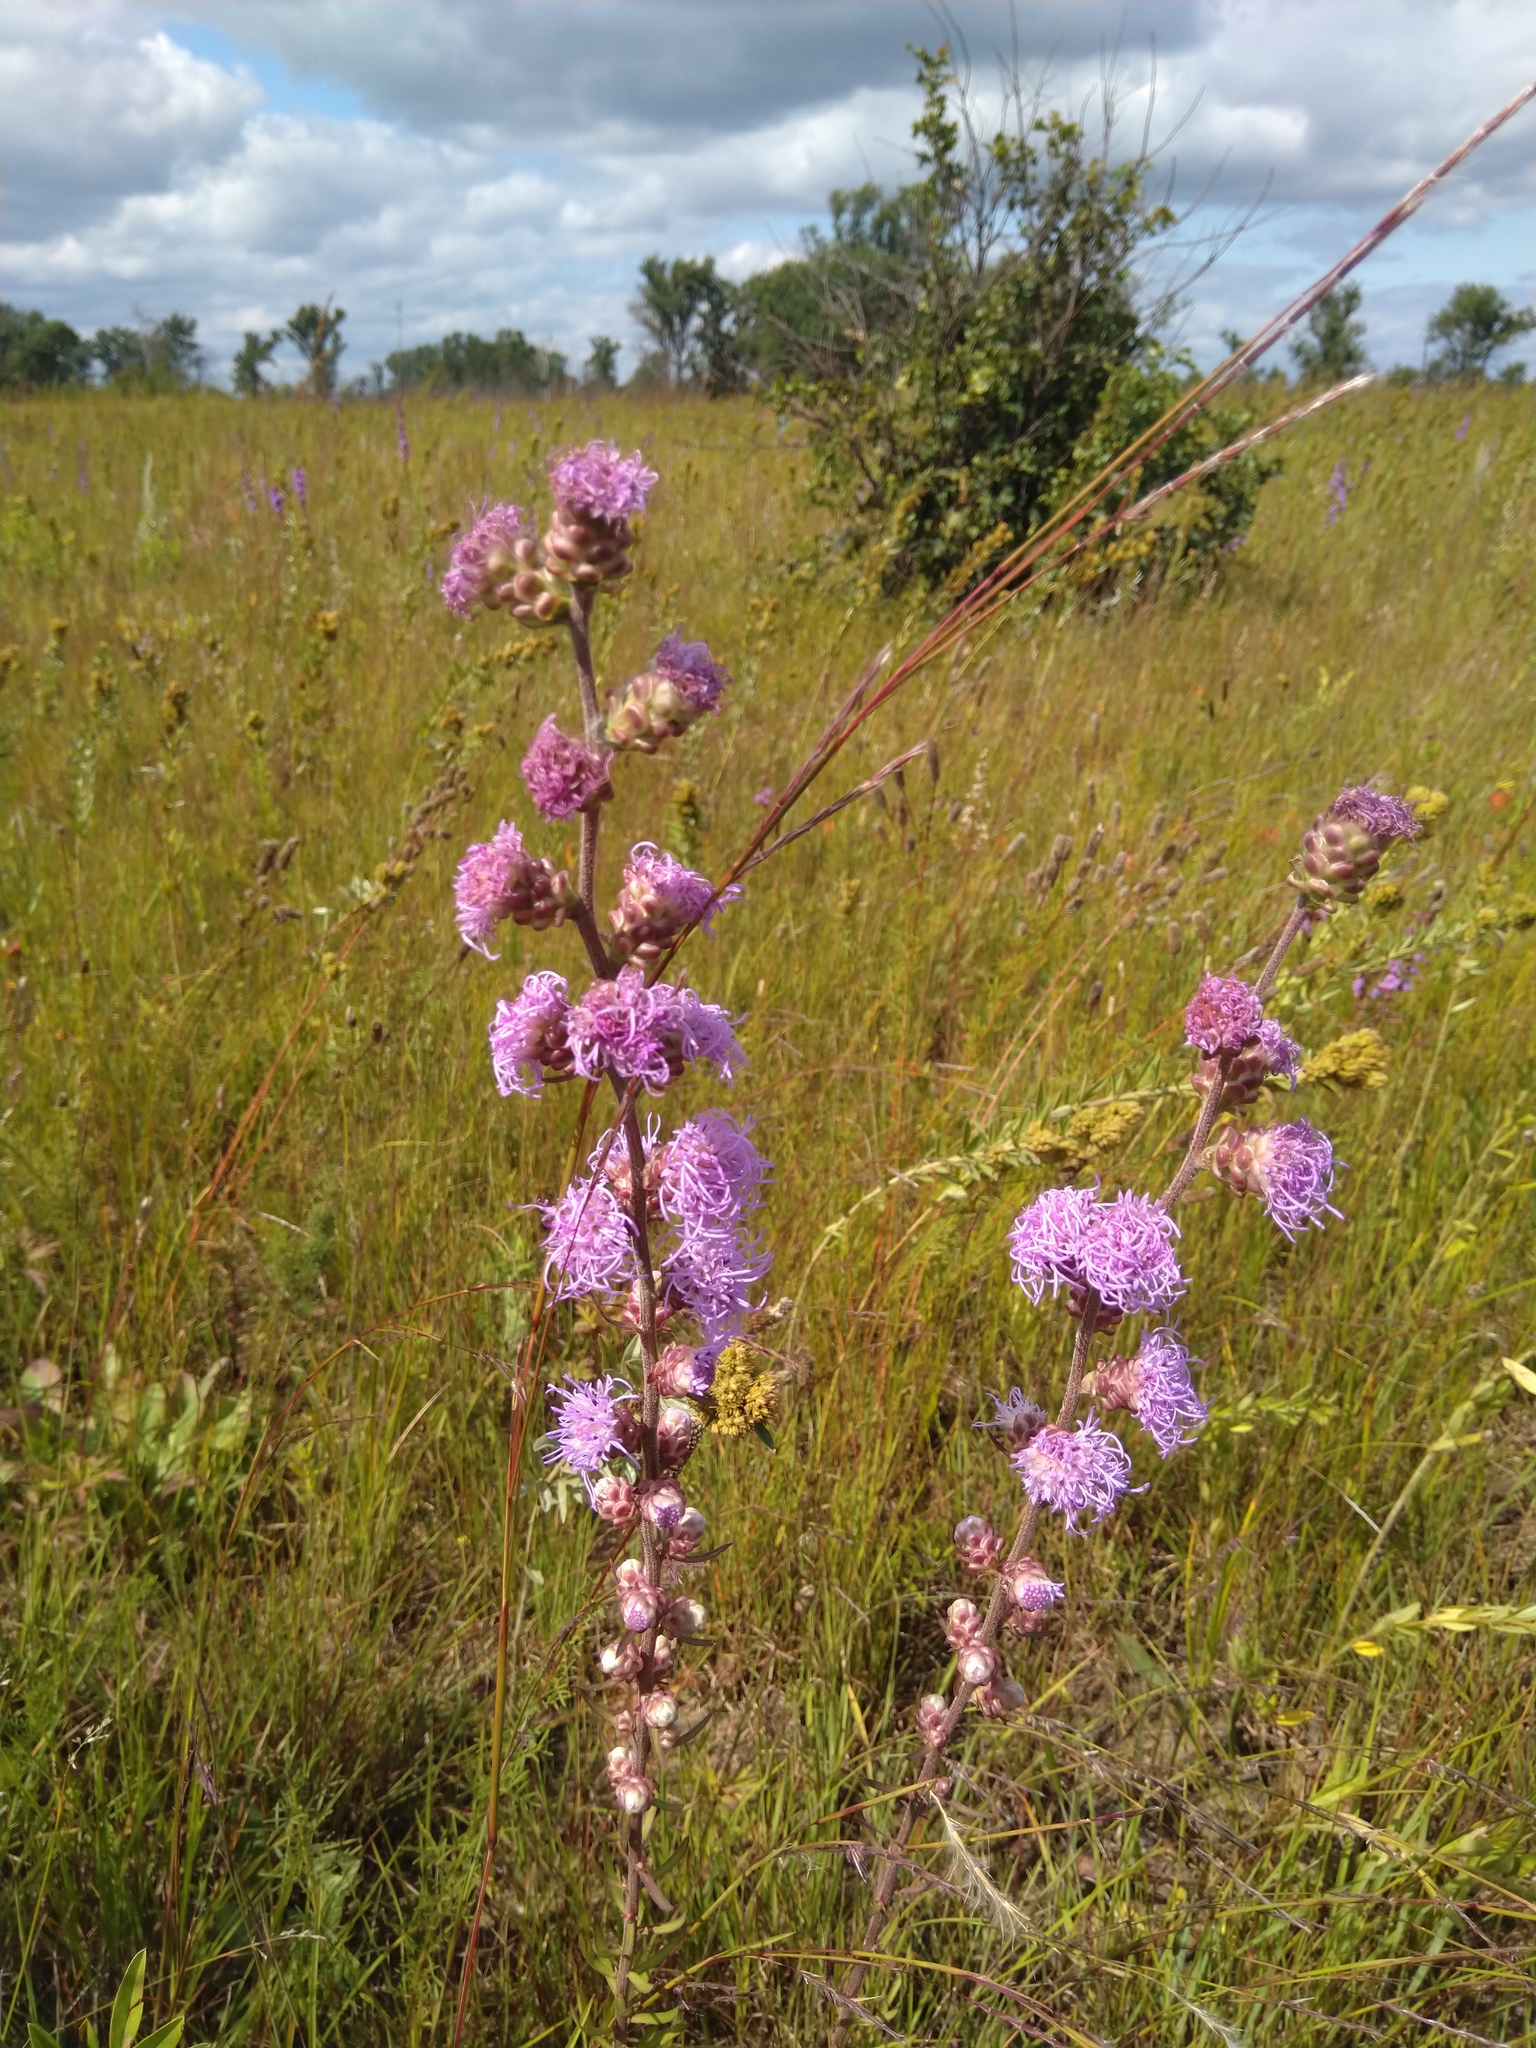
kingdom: Plantae
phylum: Tracheophyta
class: Magnoliopsida
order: Asterales
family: Asteraceae
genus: Liatris
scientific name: Liatris aspera
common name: Lacerate blazing-star
